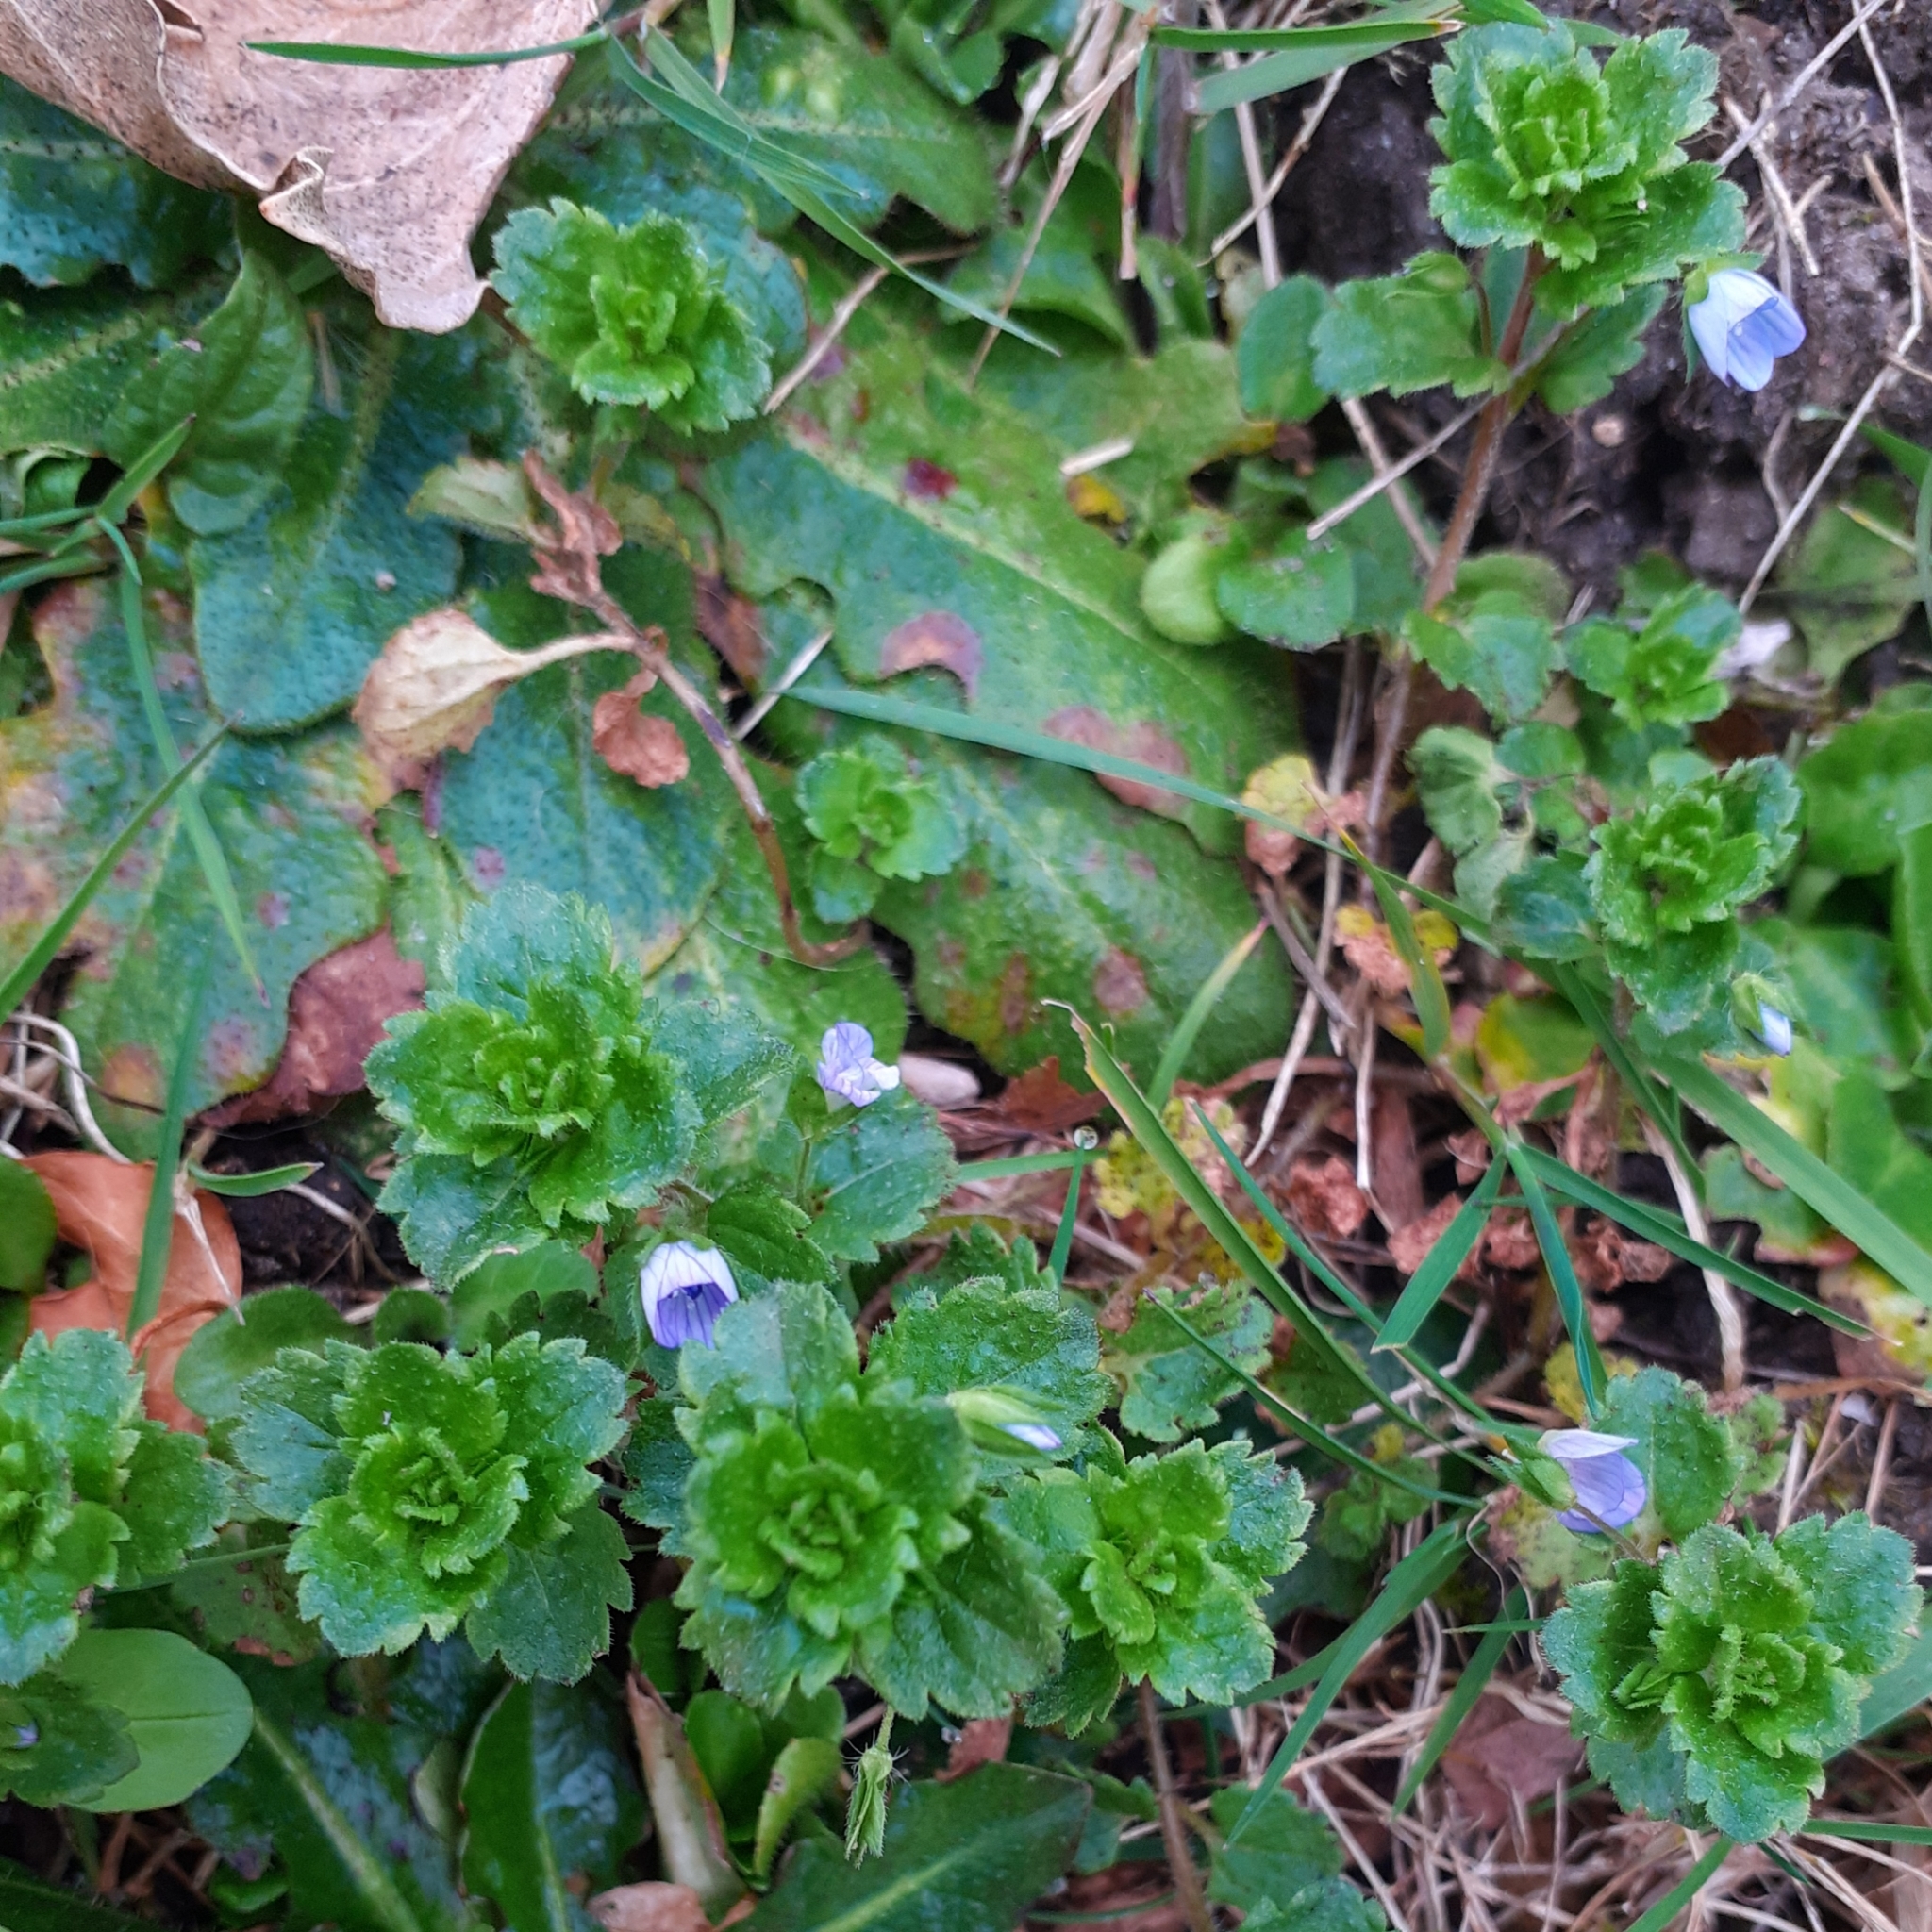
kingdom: Plantae
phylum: Tracheophyta
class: Magnoliopsida
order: Lamiales
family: Plantaginaceae
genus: Veronica
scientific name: Veronica persica
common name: Common field-speedwell
